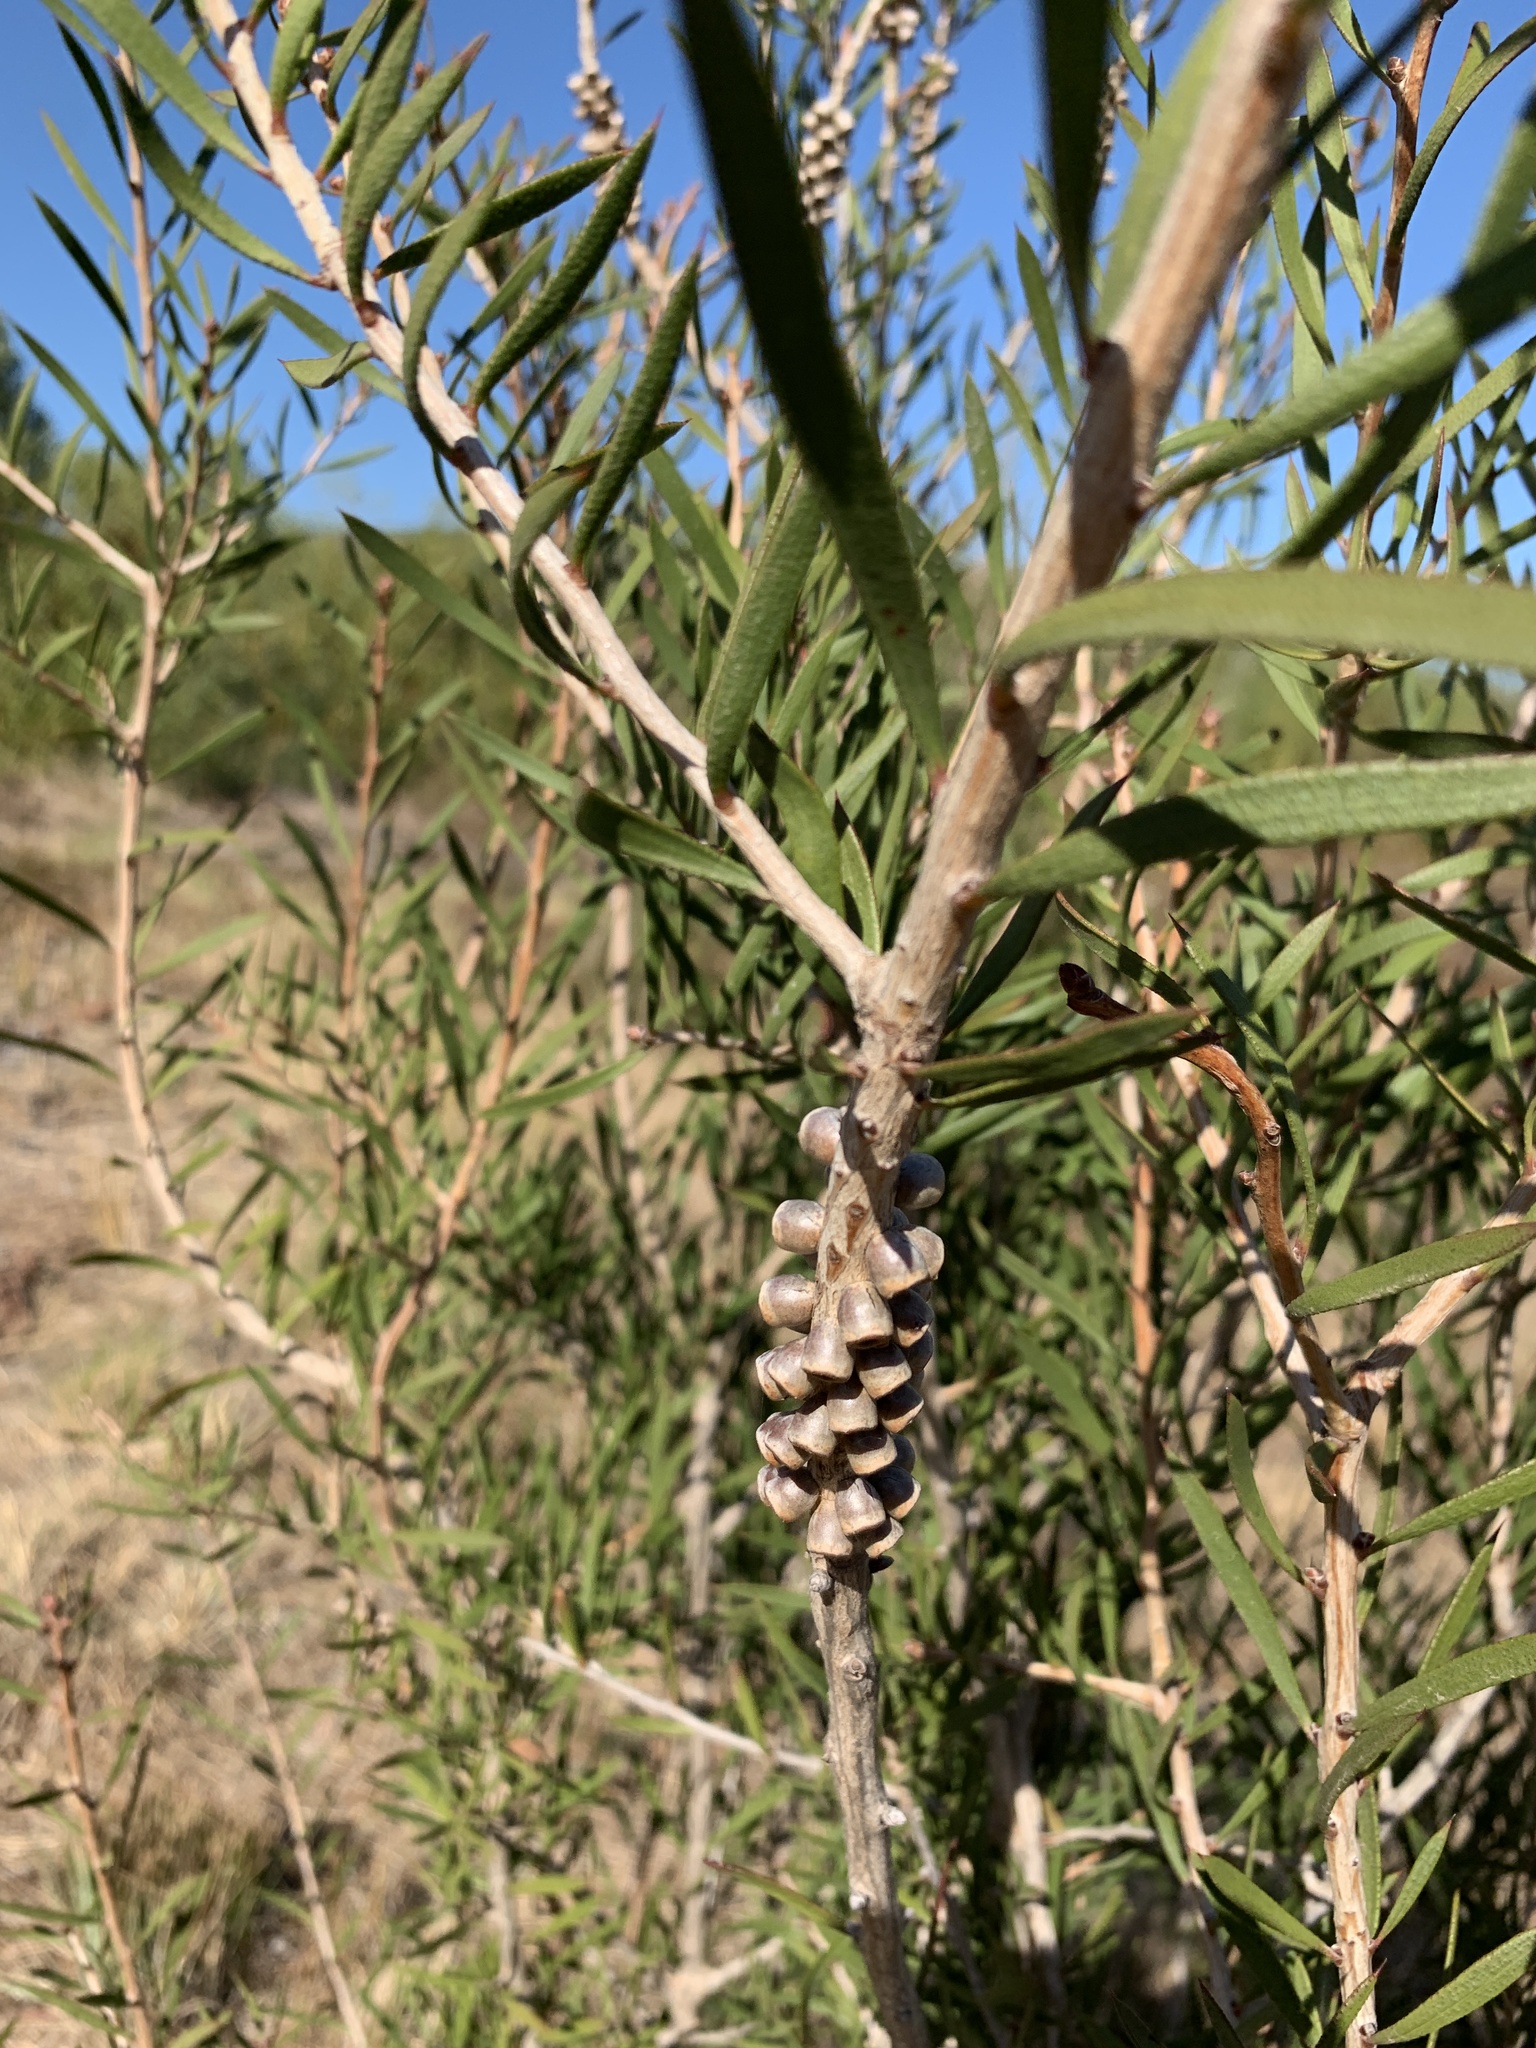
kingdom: Plantae
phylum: Tracheophyta
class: Magnoliopsida
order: Myrtales
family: Myrtaceae
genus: Callistemon
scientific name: Callistemon rugulosus
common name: Scarlet bottlebrush
